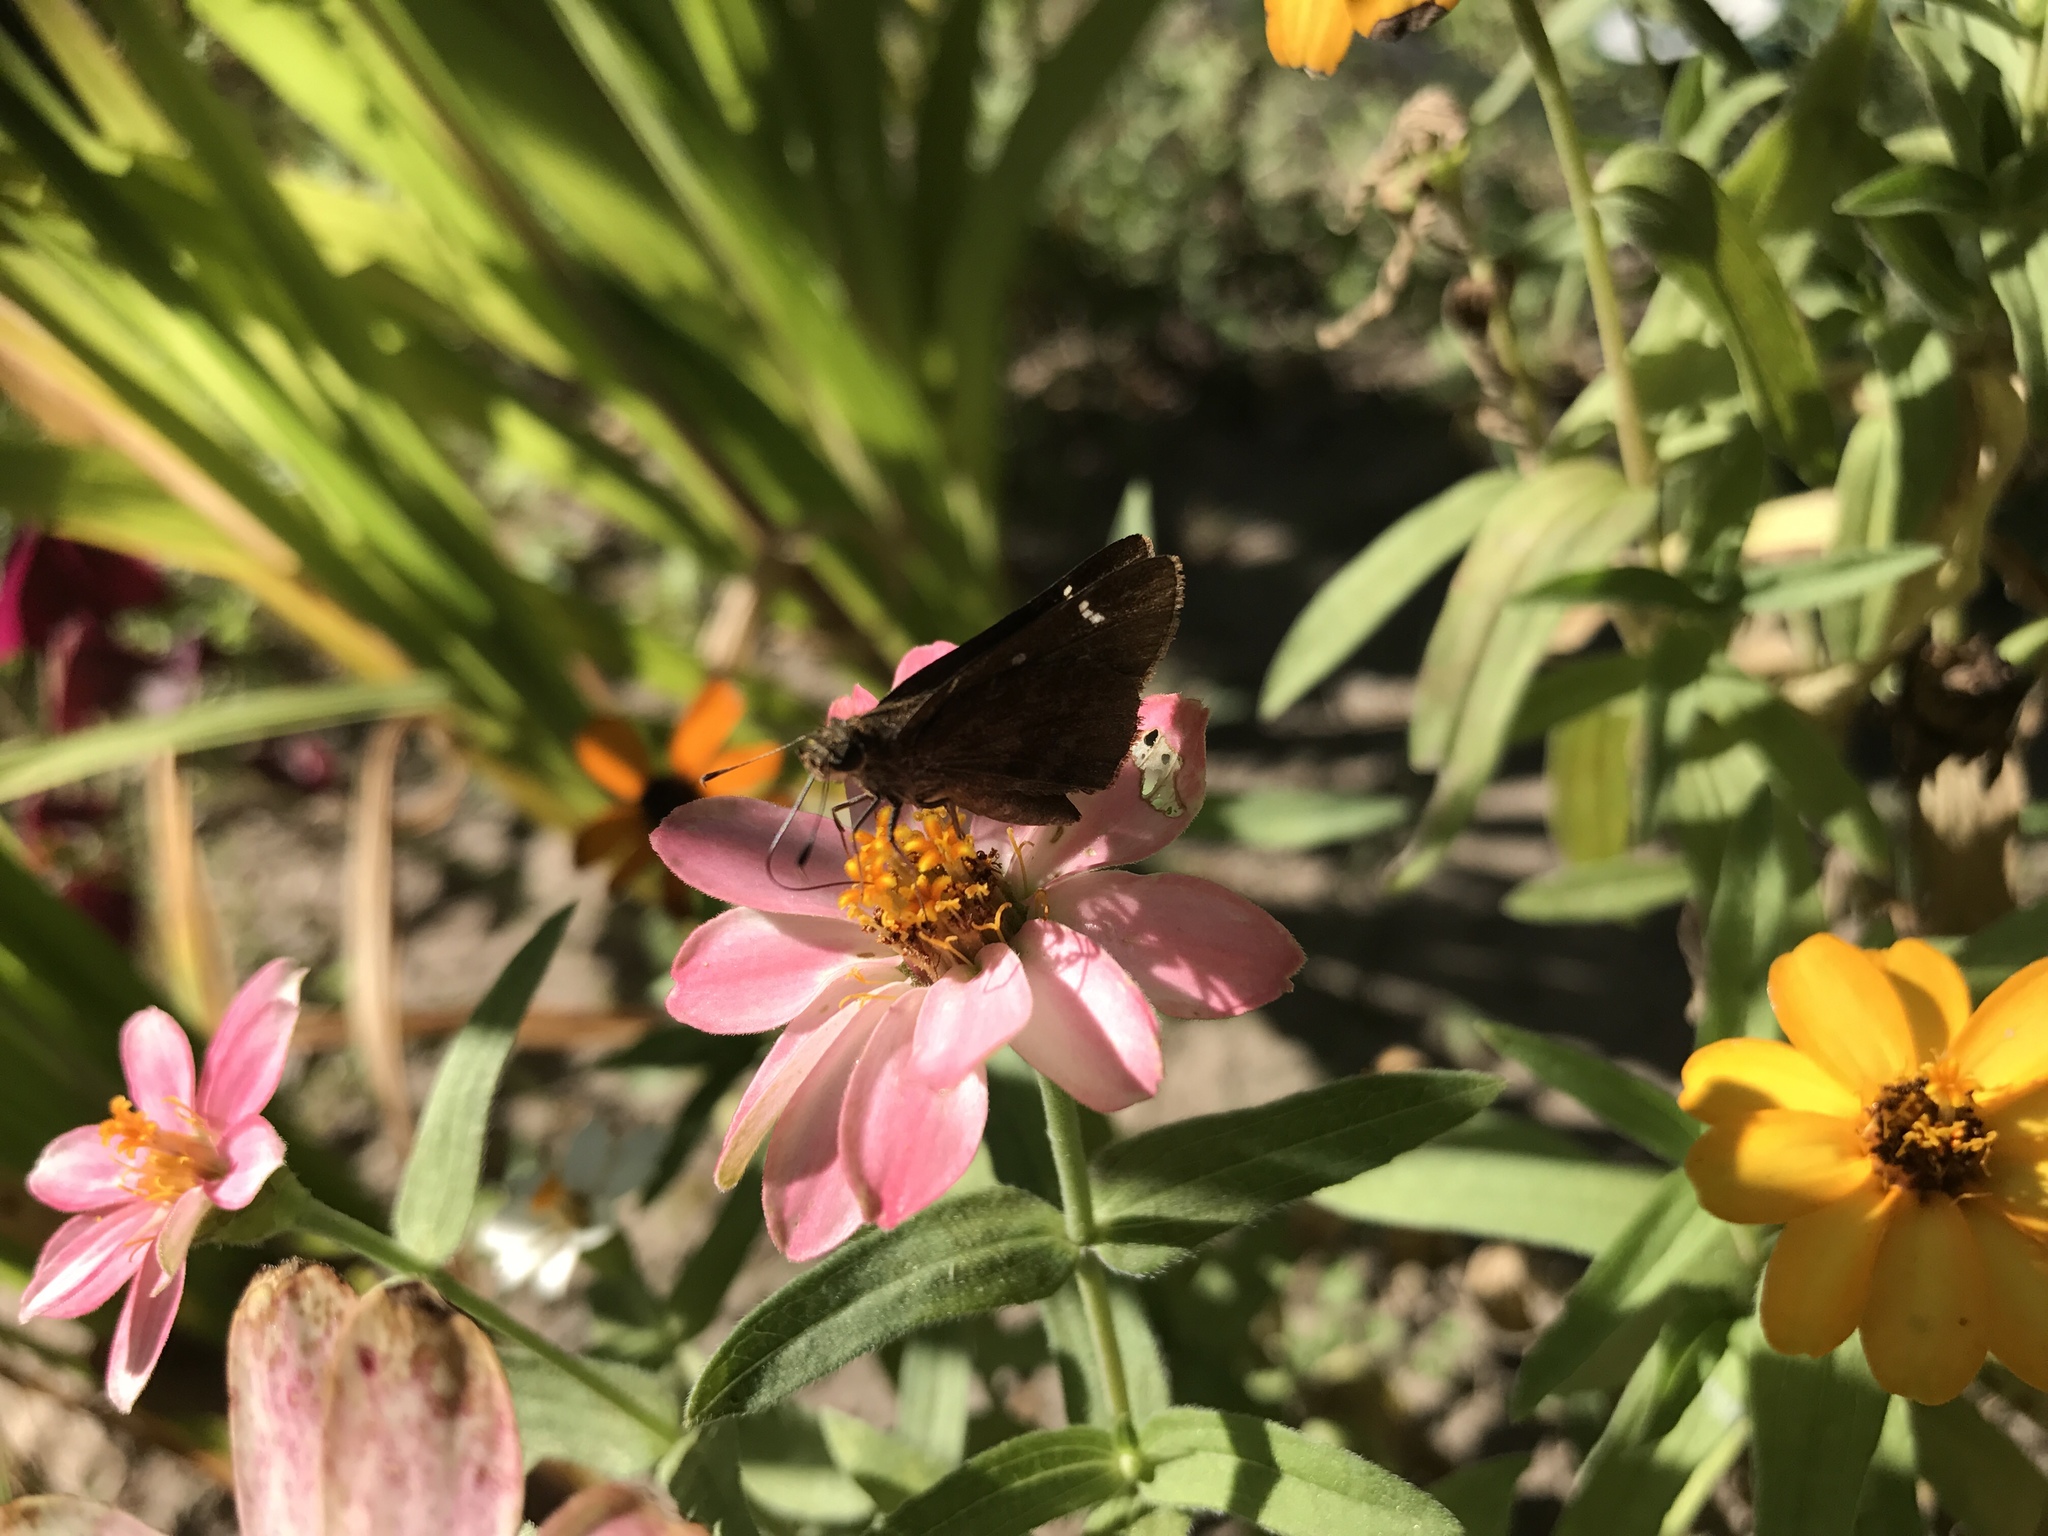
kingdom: Animalia
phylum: Arthropoda
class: Insecta
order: Lepidoptera
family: Hesperiidae
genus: Lerema
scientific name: Lerema accius
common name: Clouded skipper
